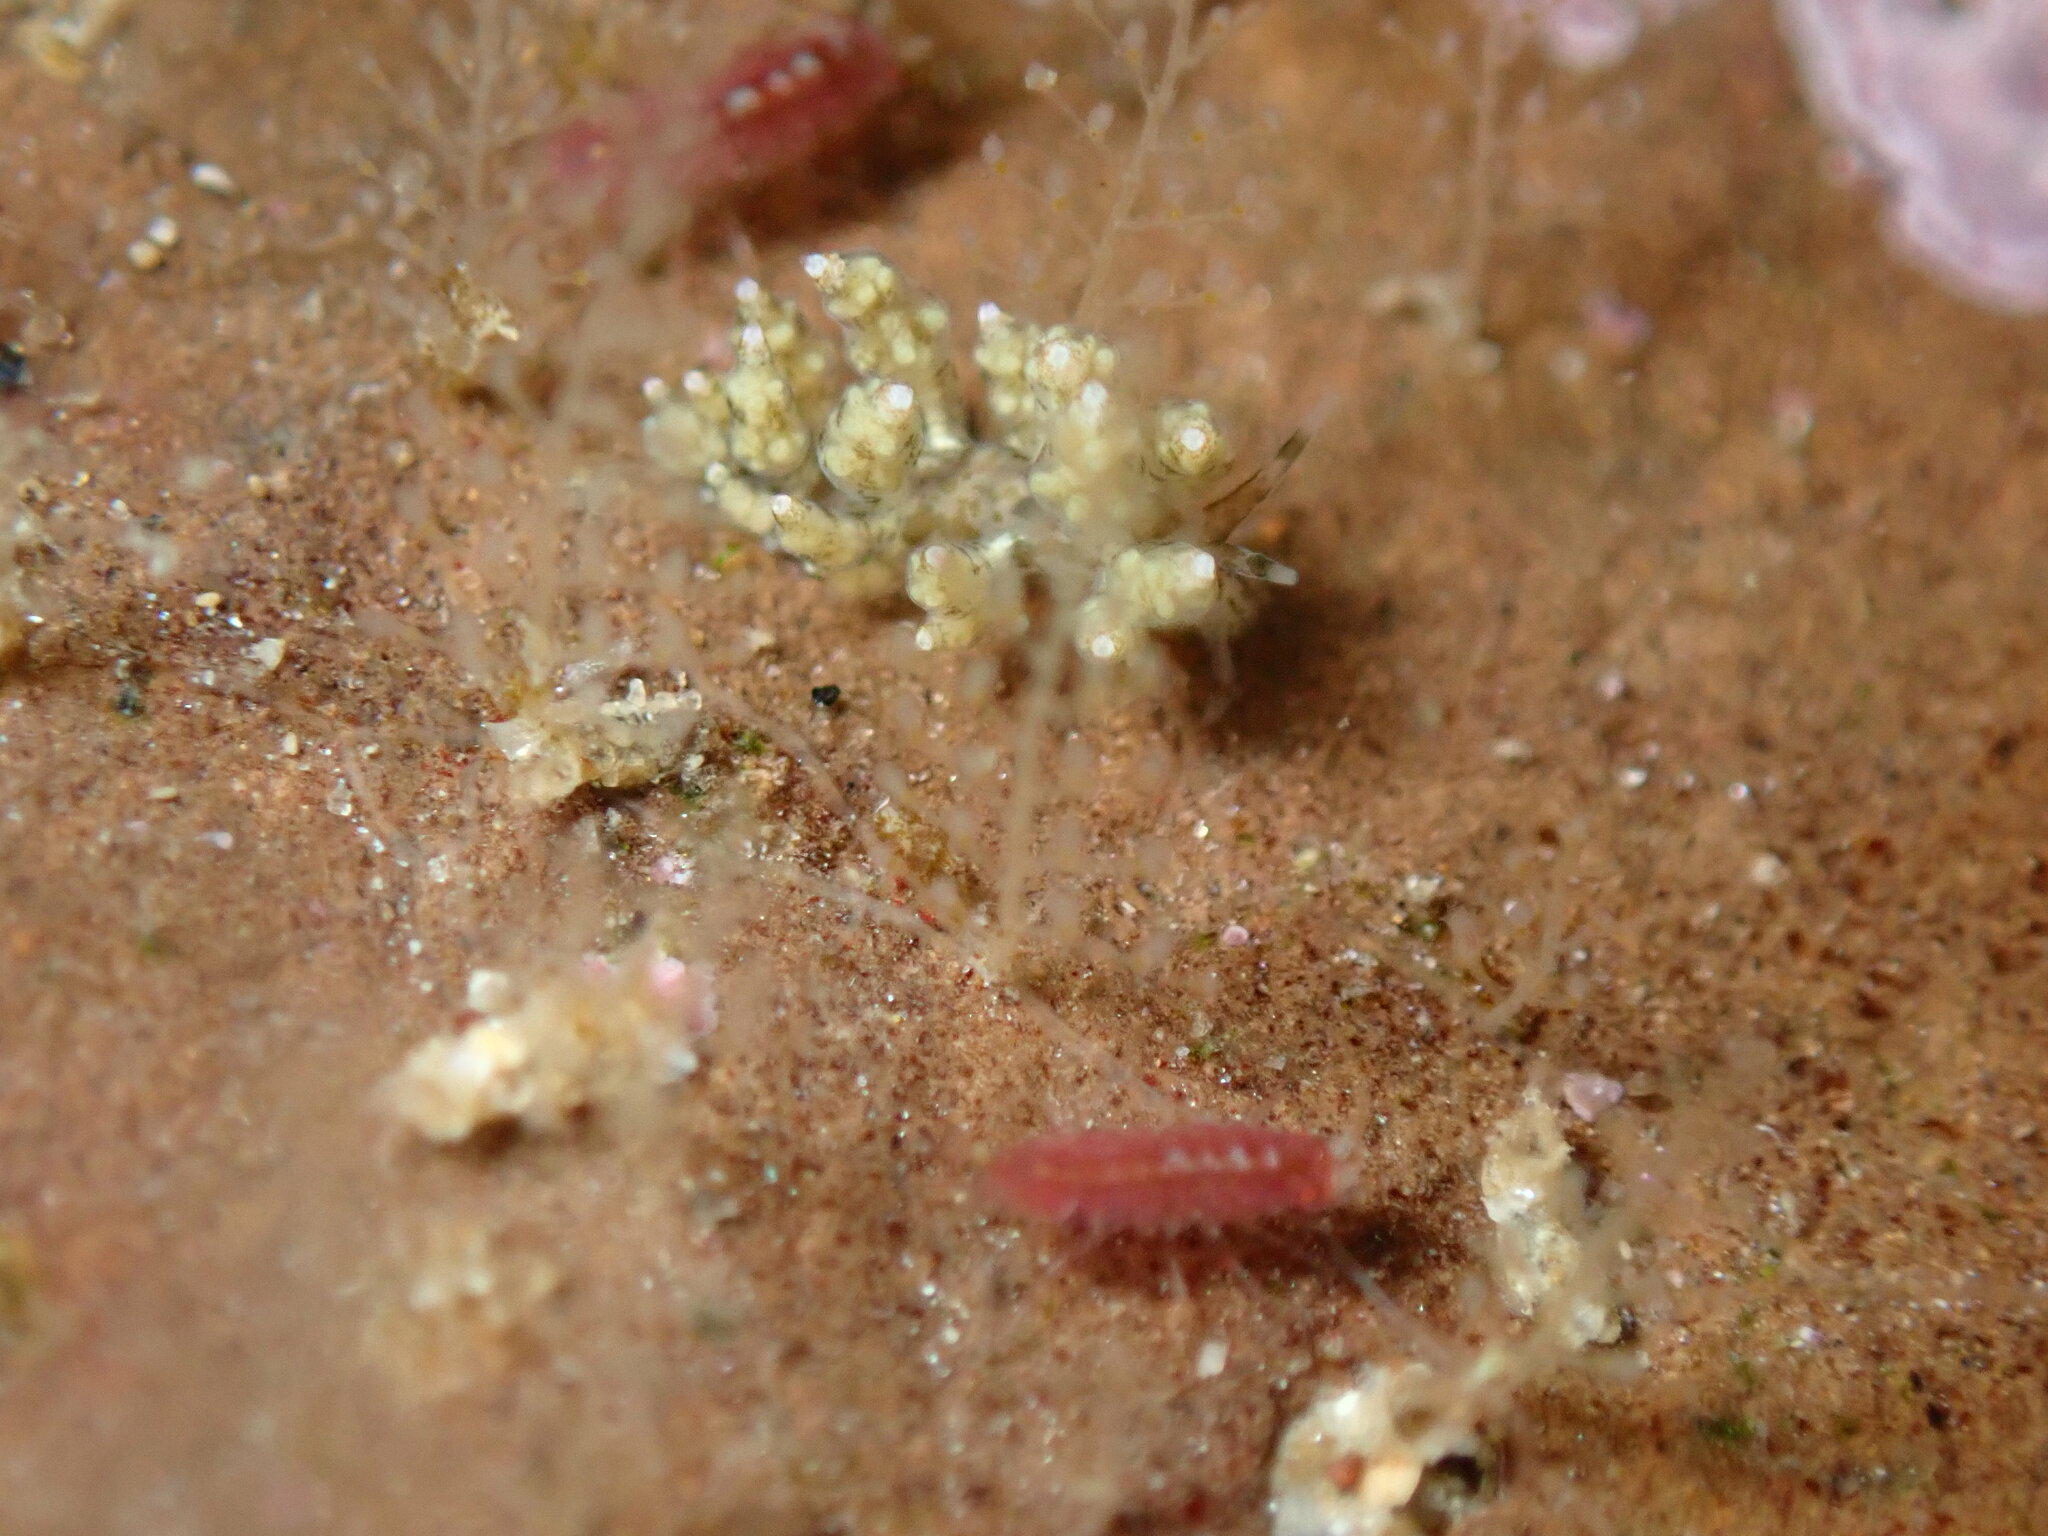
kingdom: Animalia
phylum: Mollusca
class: Gastropoda
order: Nudibranchia
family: Eubranchidae
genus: Eubranchus
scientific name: Eubranchus rustyus
